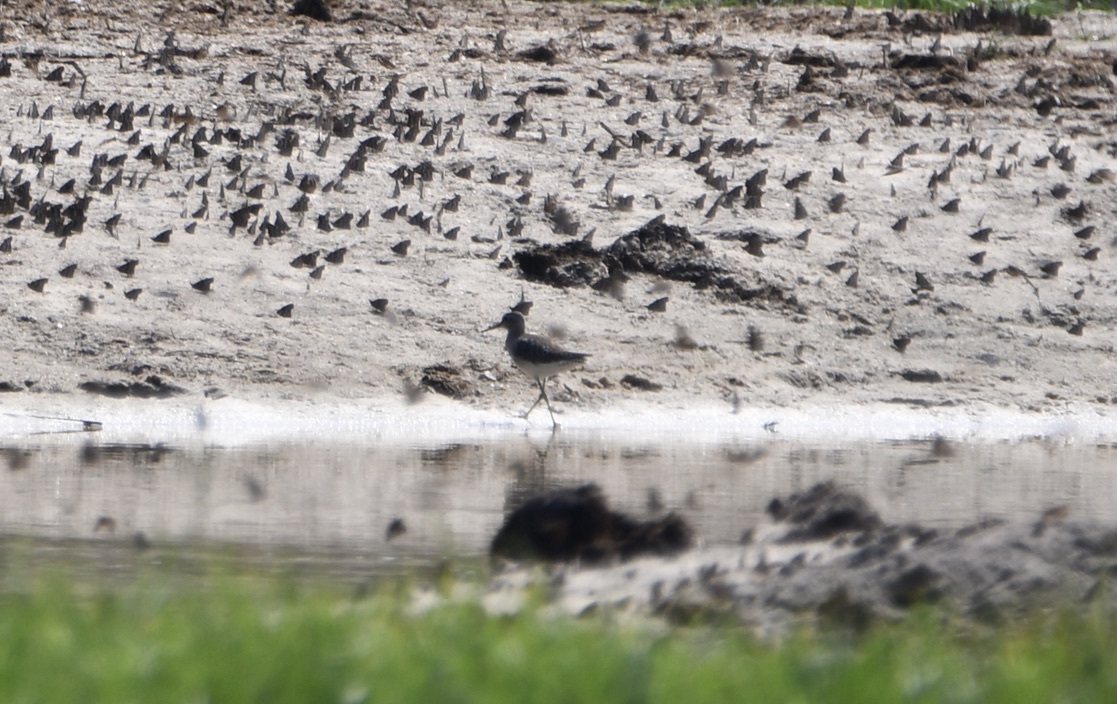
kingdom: Animalia
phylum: Chordata
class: Aves
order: Charadriiformes
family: Scolopacidae
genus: Tringa
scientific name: Tringa glareola
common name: Wood sandpiper
